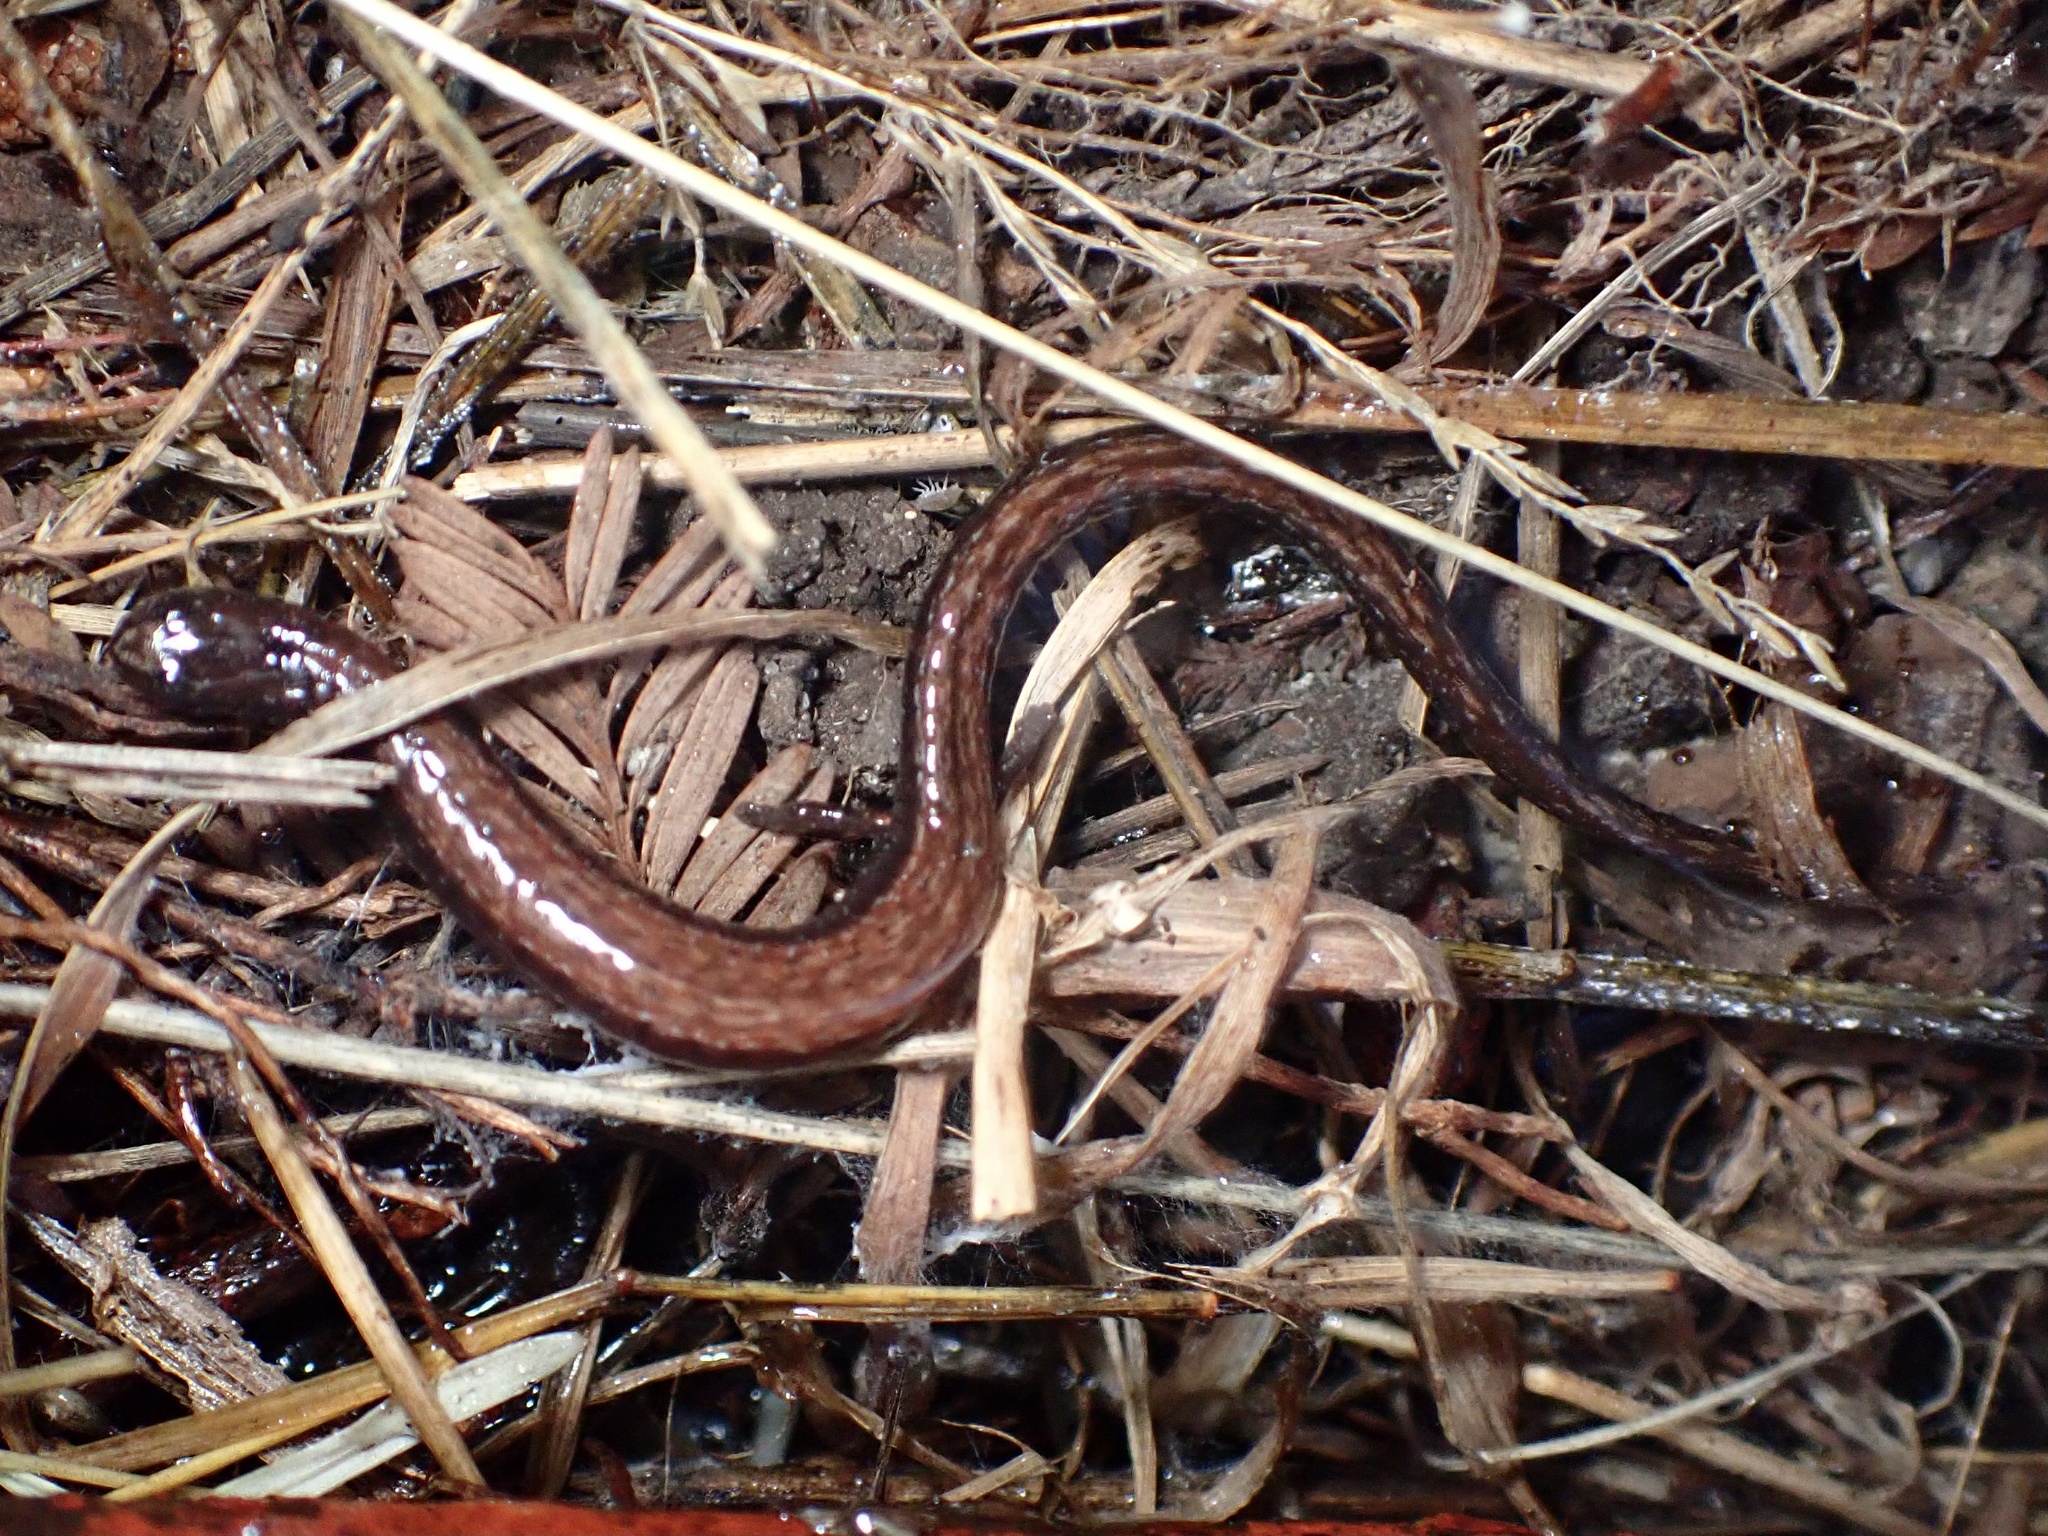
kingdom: Animalia
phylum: Chordata
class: Amphibia
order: Caudata
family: Plethodontidae
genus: Batrachoseps
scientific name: Batrachoseps attenuatus
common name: California slender salamander
